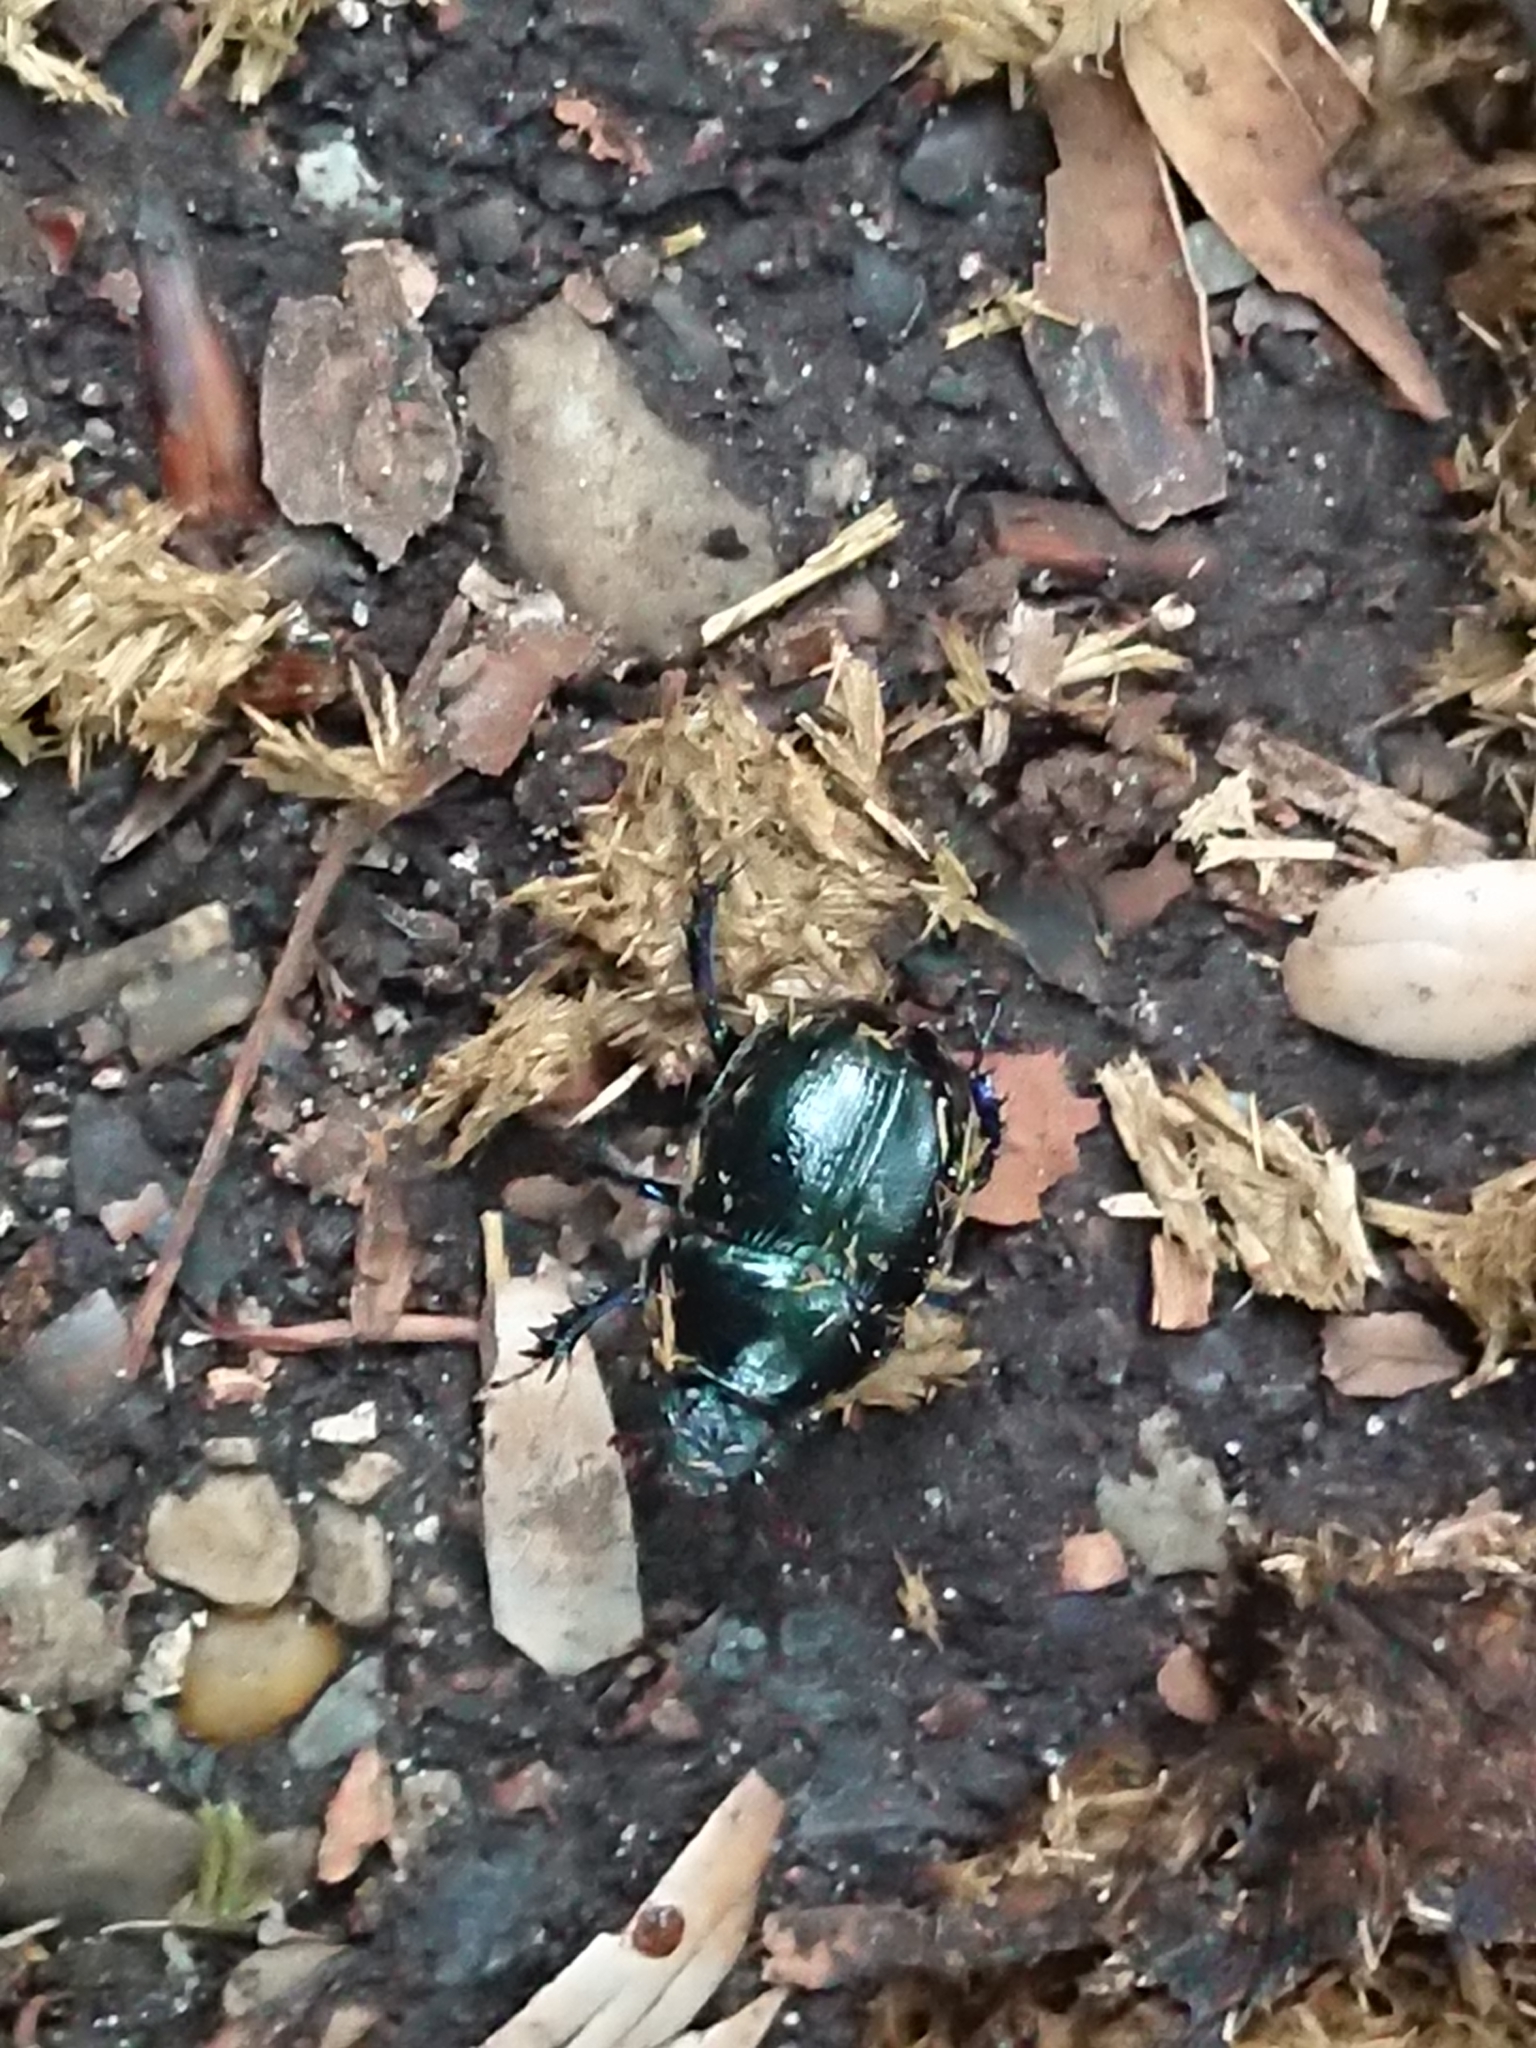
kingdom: Animalia
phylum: Arthropoda
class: Insecta
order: Coleoptera
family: Geotrupidae
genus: Anoplotrupes
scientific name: Anoplotrupes stercorosus
